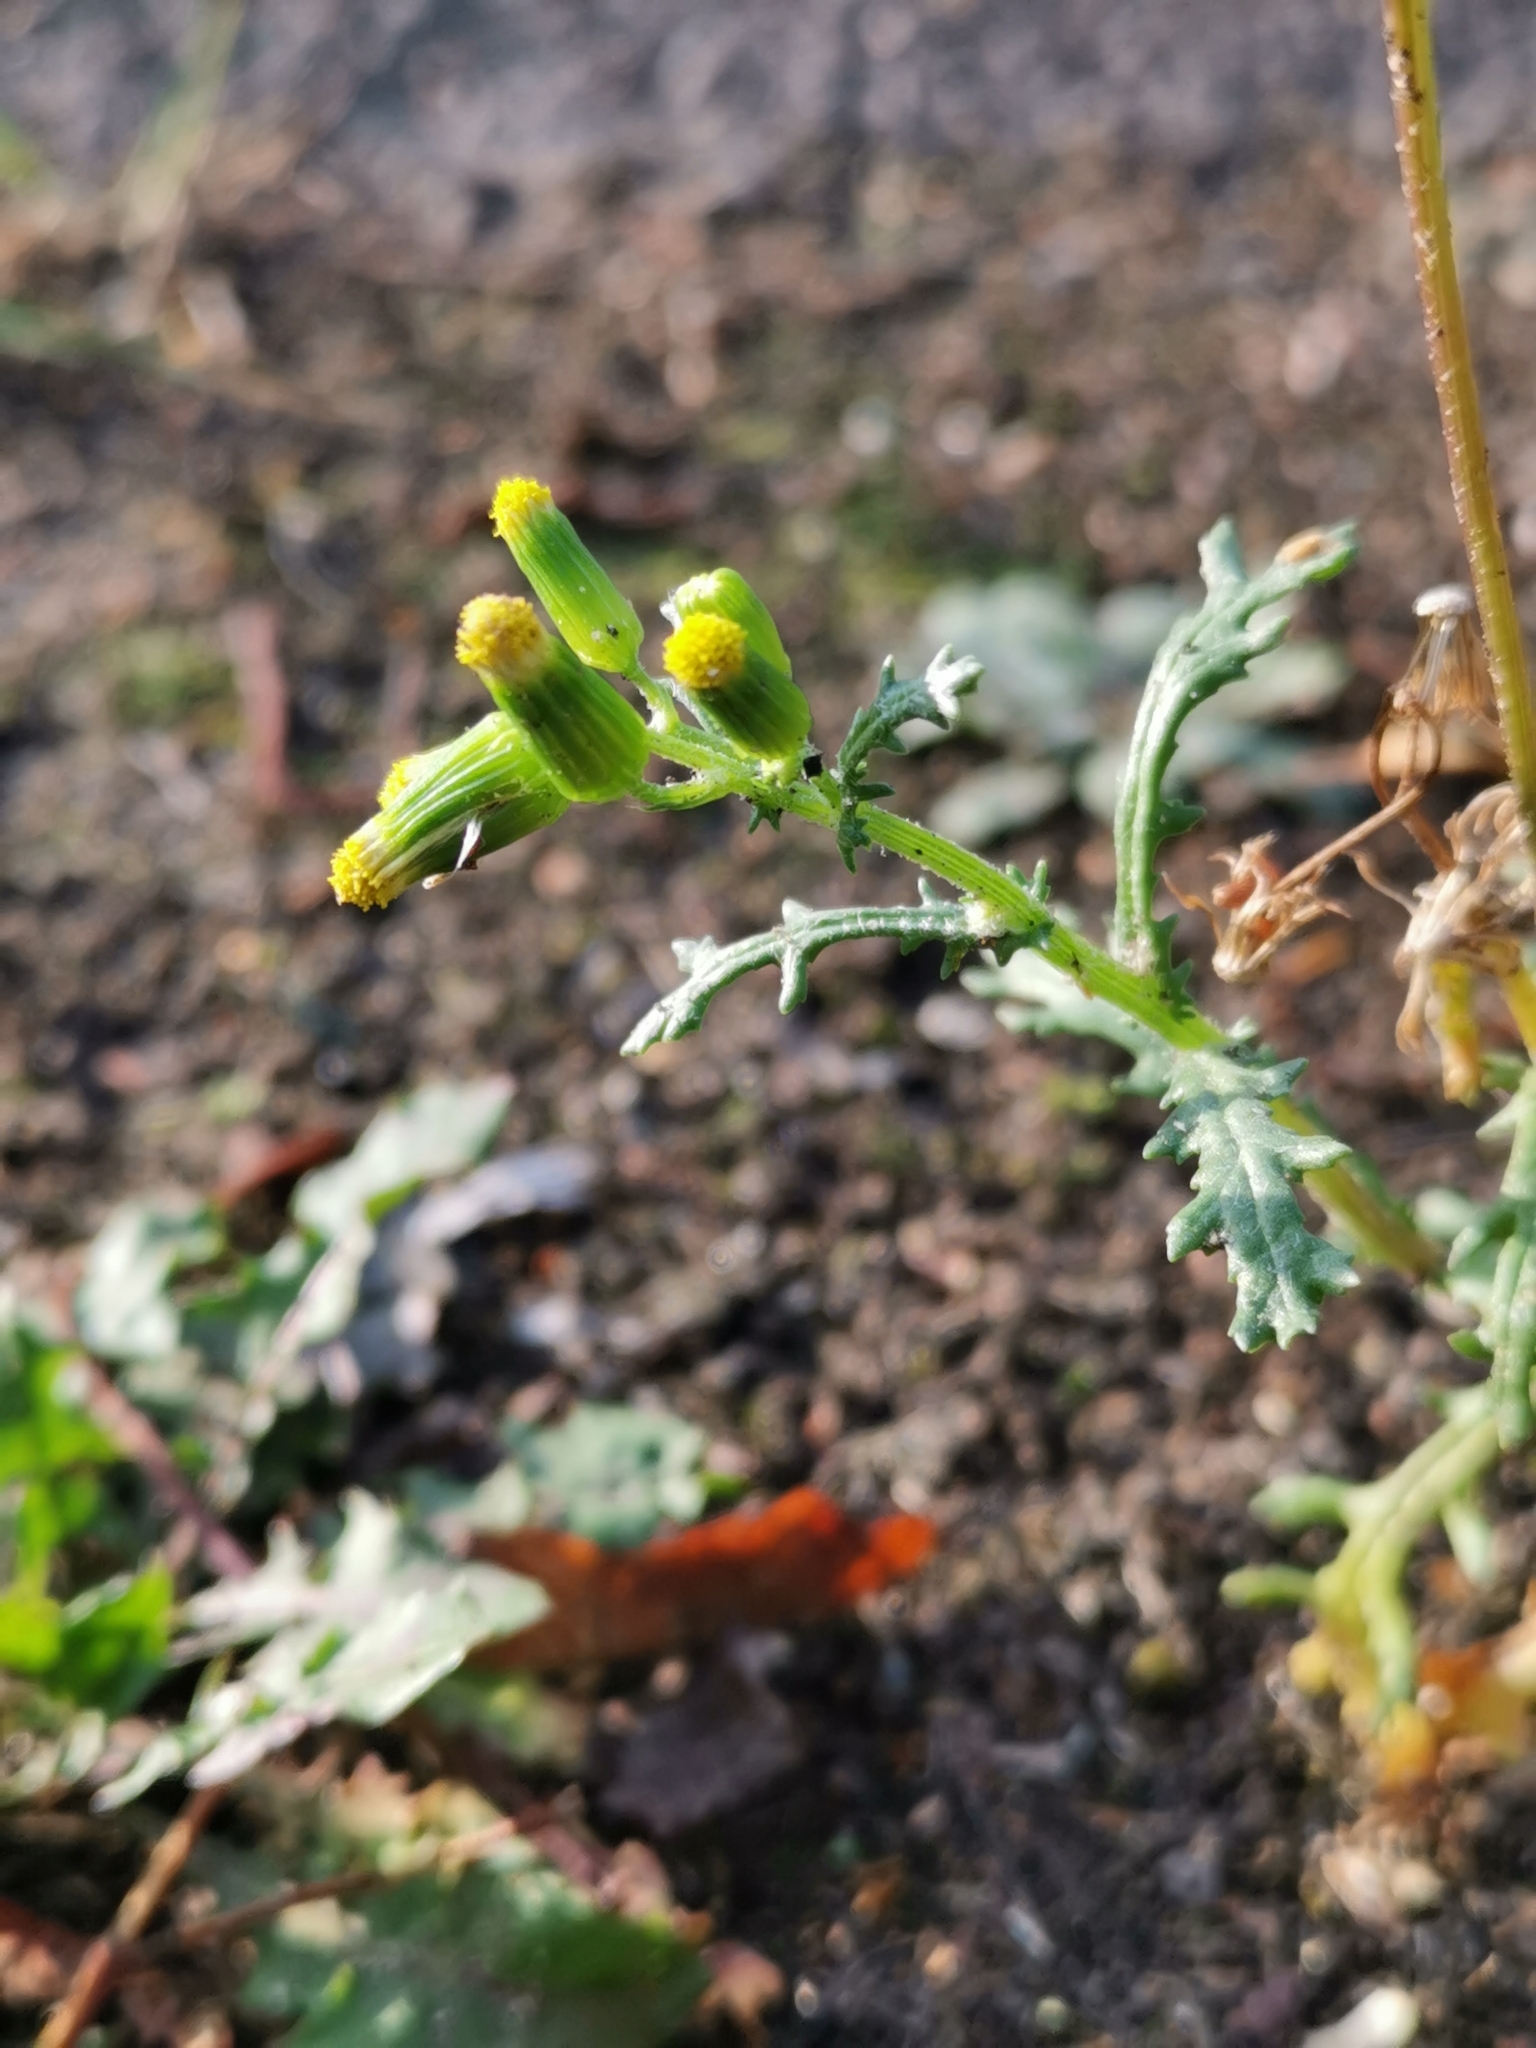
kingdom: Plantae
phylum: Tracheophyta
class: Magnoliopsida
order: Asterales
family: Asteraceae
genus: Senecio
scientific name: Senecio vulgaris
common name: Old-man-in-the-spring
